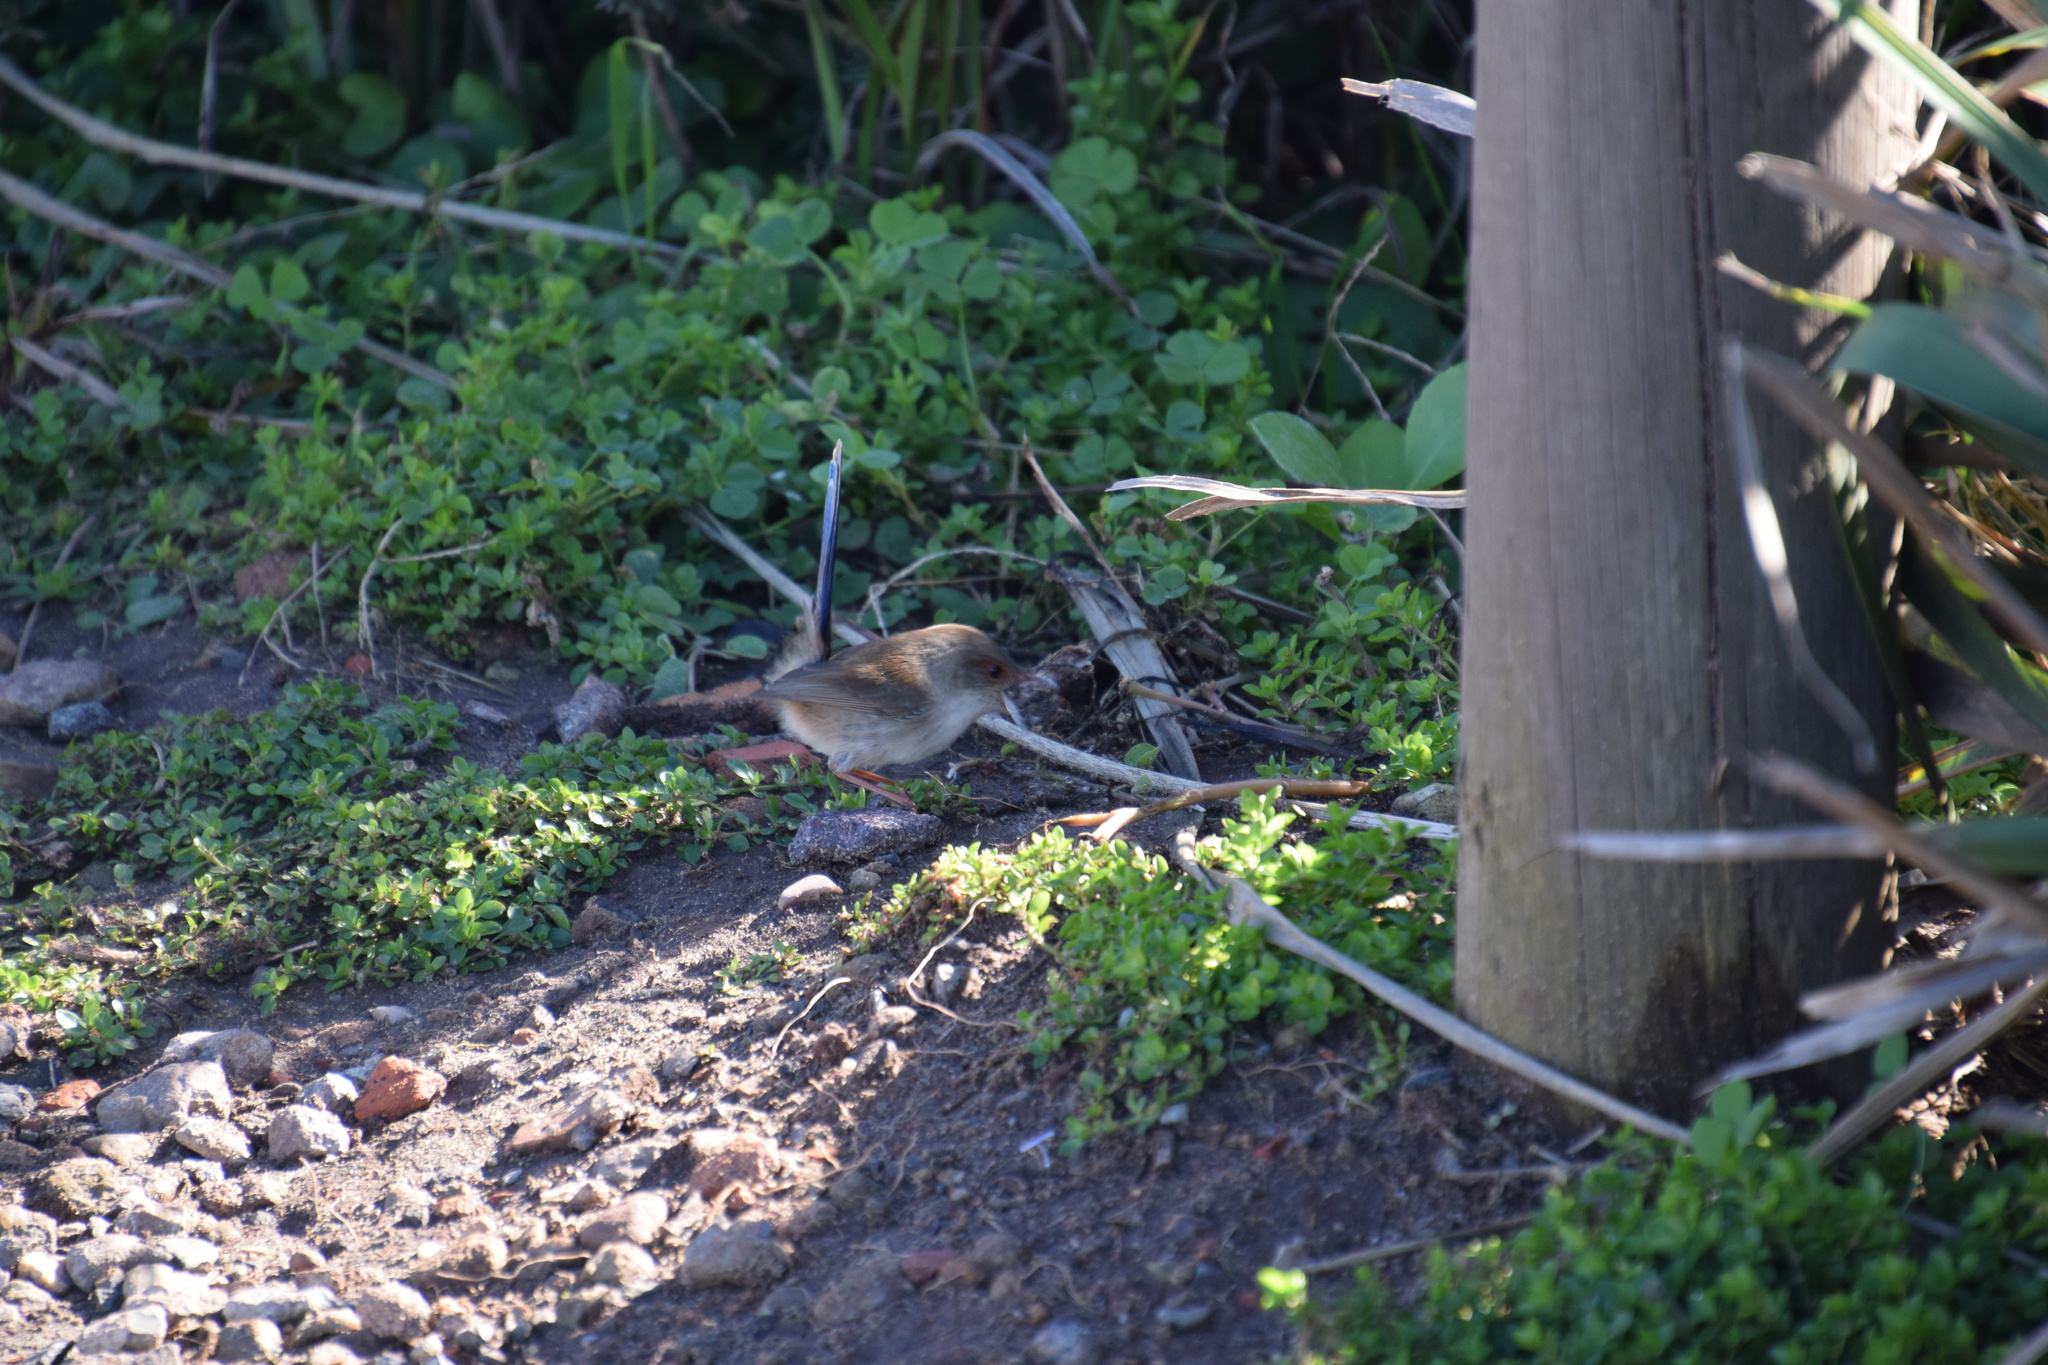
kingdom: Animalia
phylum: Chordata
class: Aves
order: Passeriformes
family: Maluridae
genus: Malurus
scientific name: Malurus cyaneus
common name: Superb fairywren
